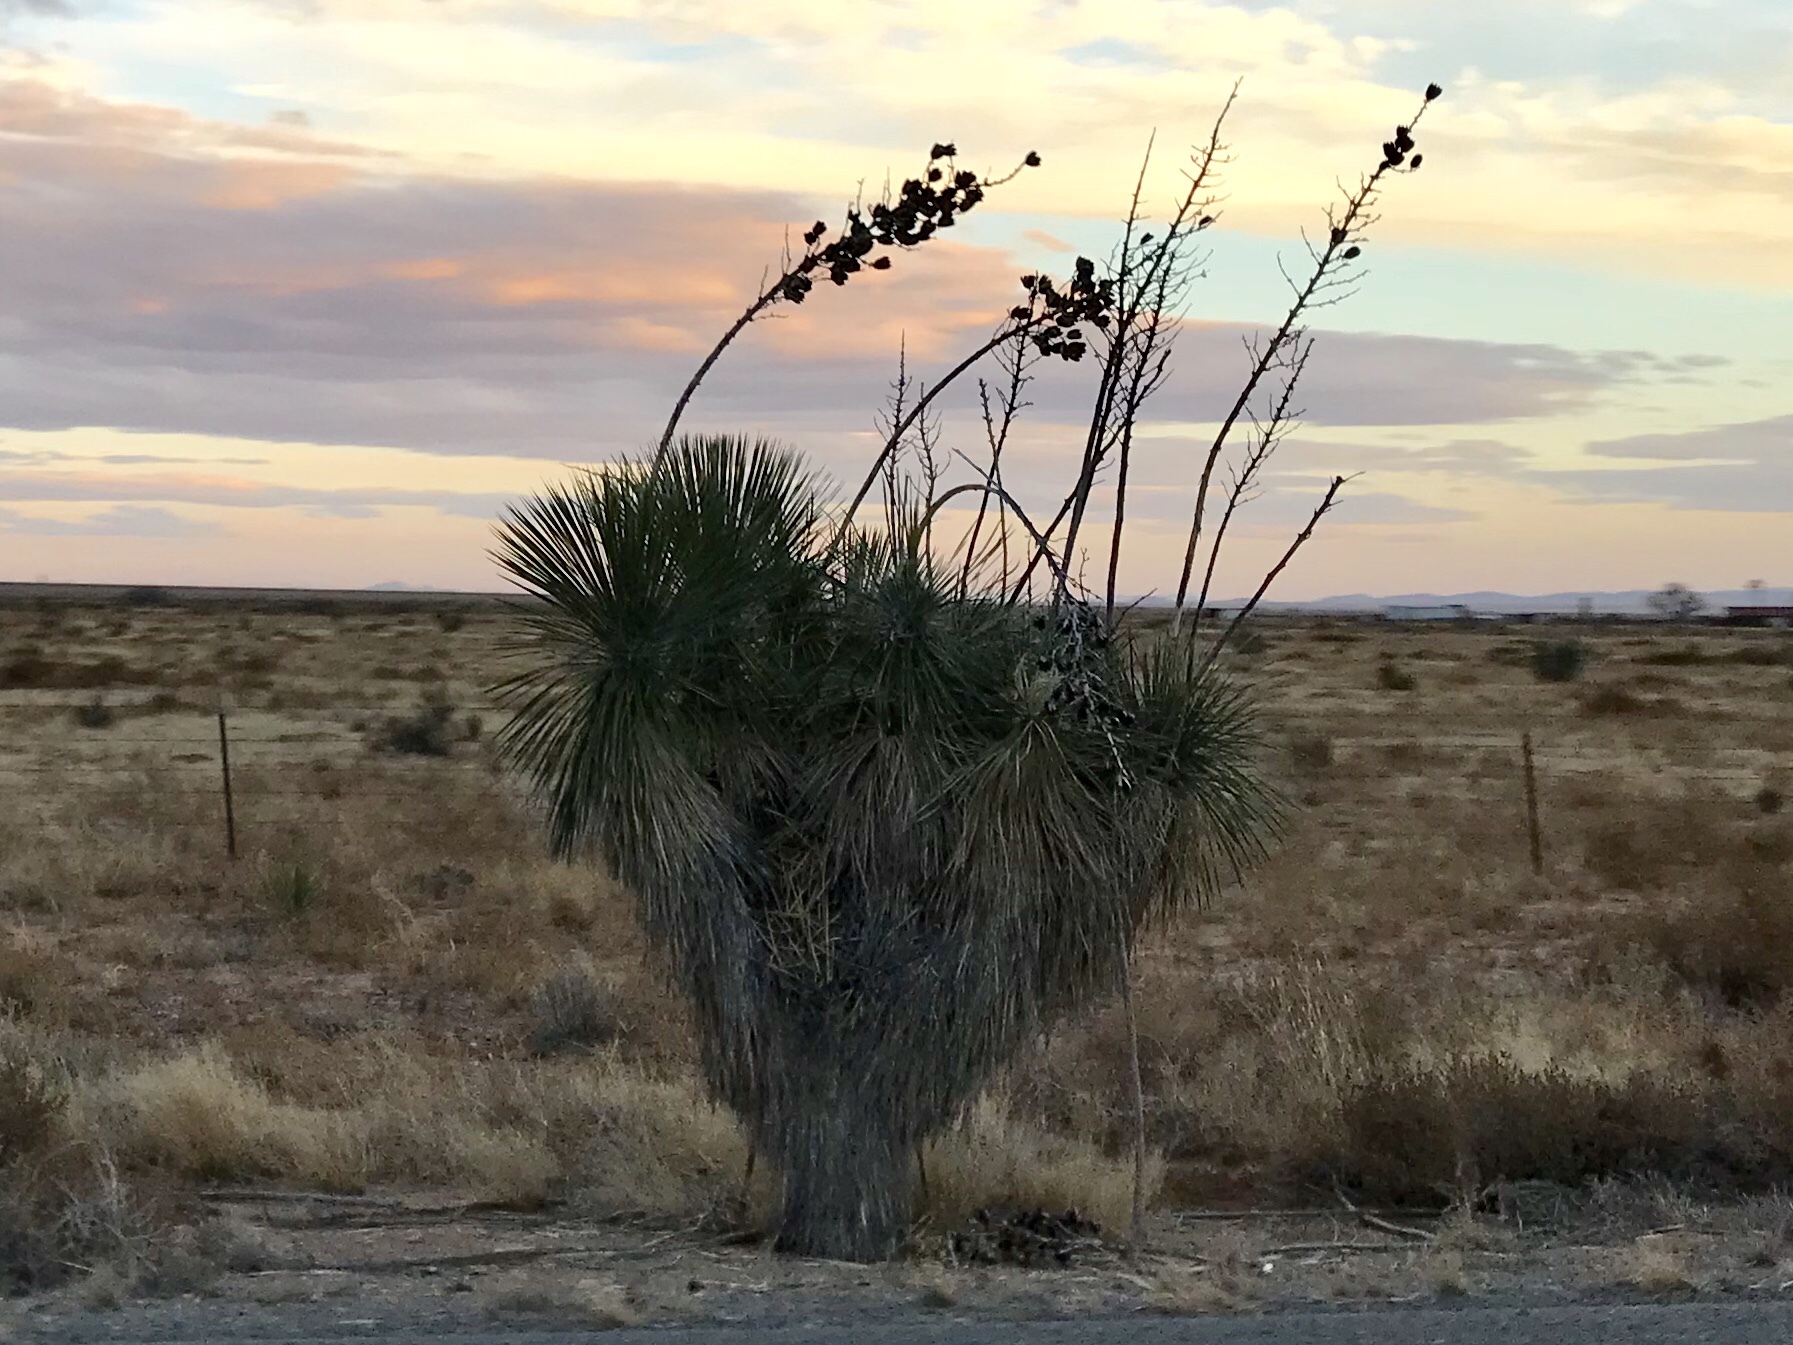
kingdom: Plantae
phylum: Tracheophyta
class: Liliopsida
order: Asparagales
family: Asparagaceae
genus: Yucca
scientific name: Yucca elata
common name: Palmella
